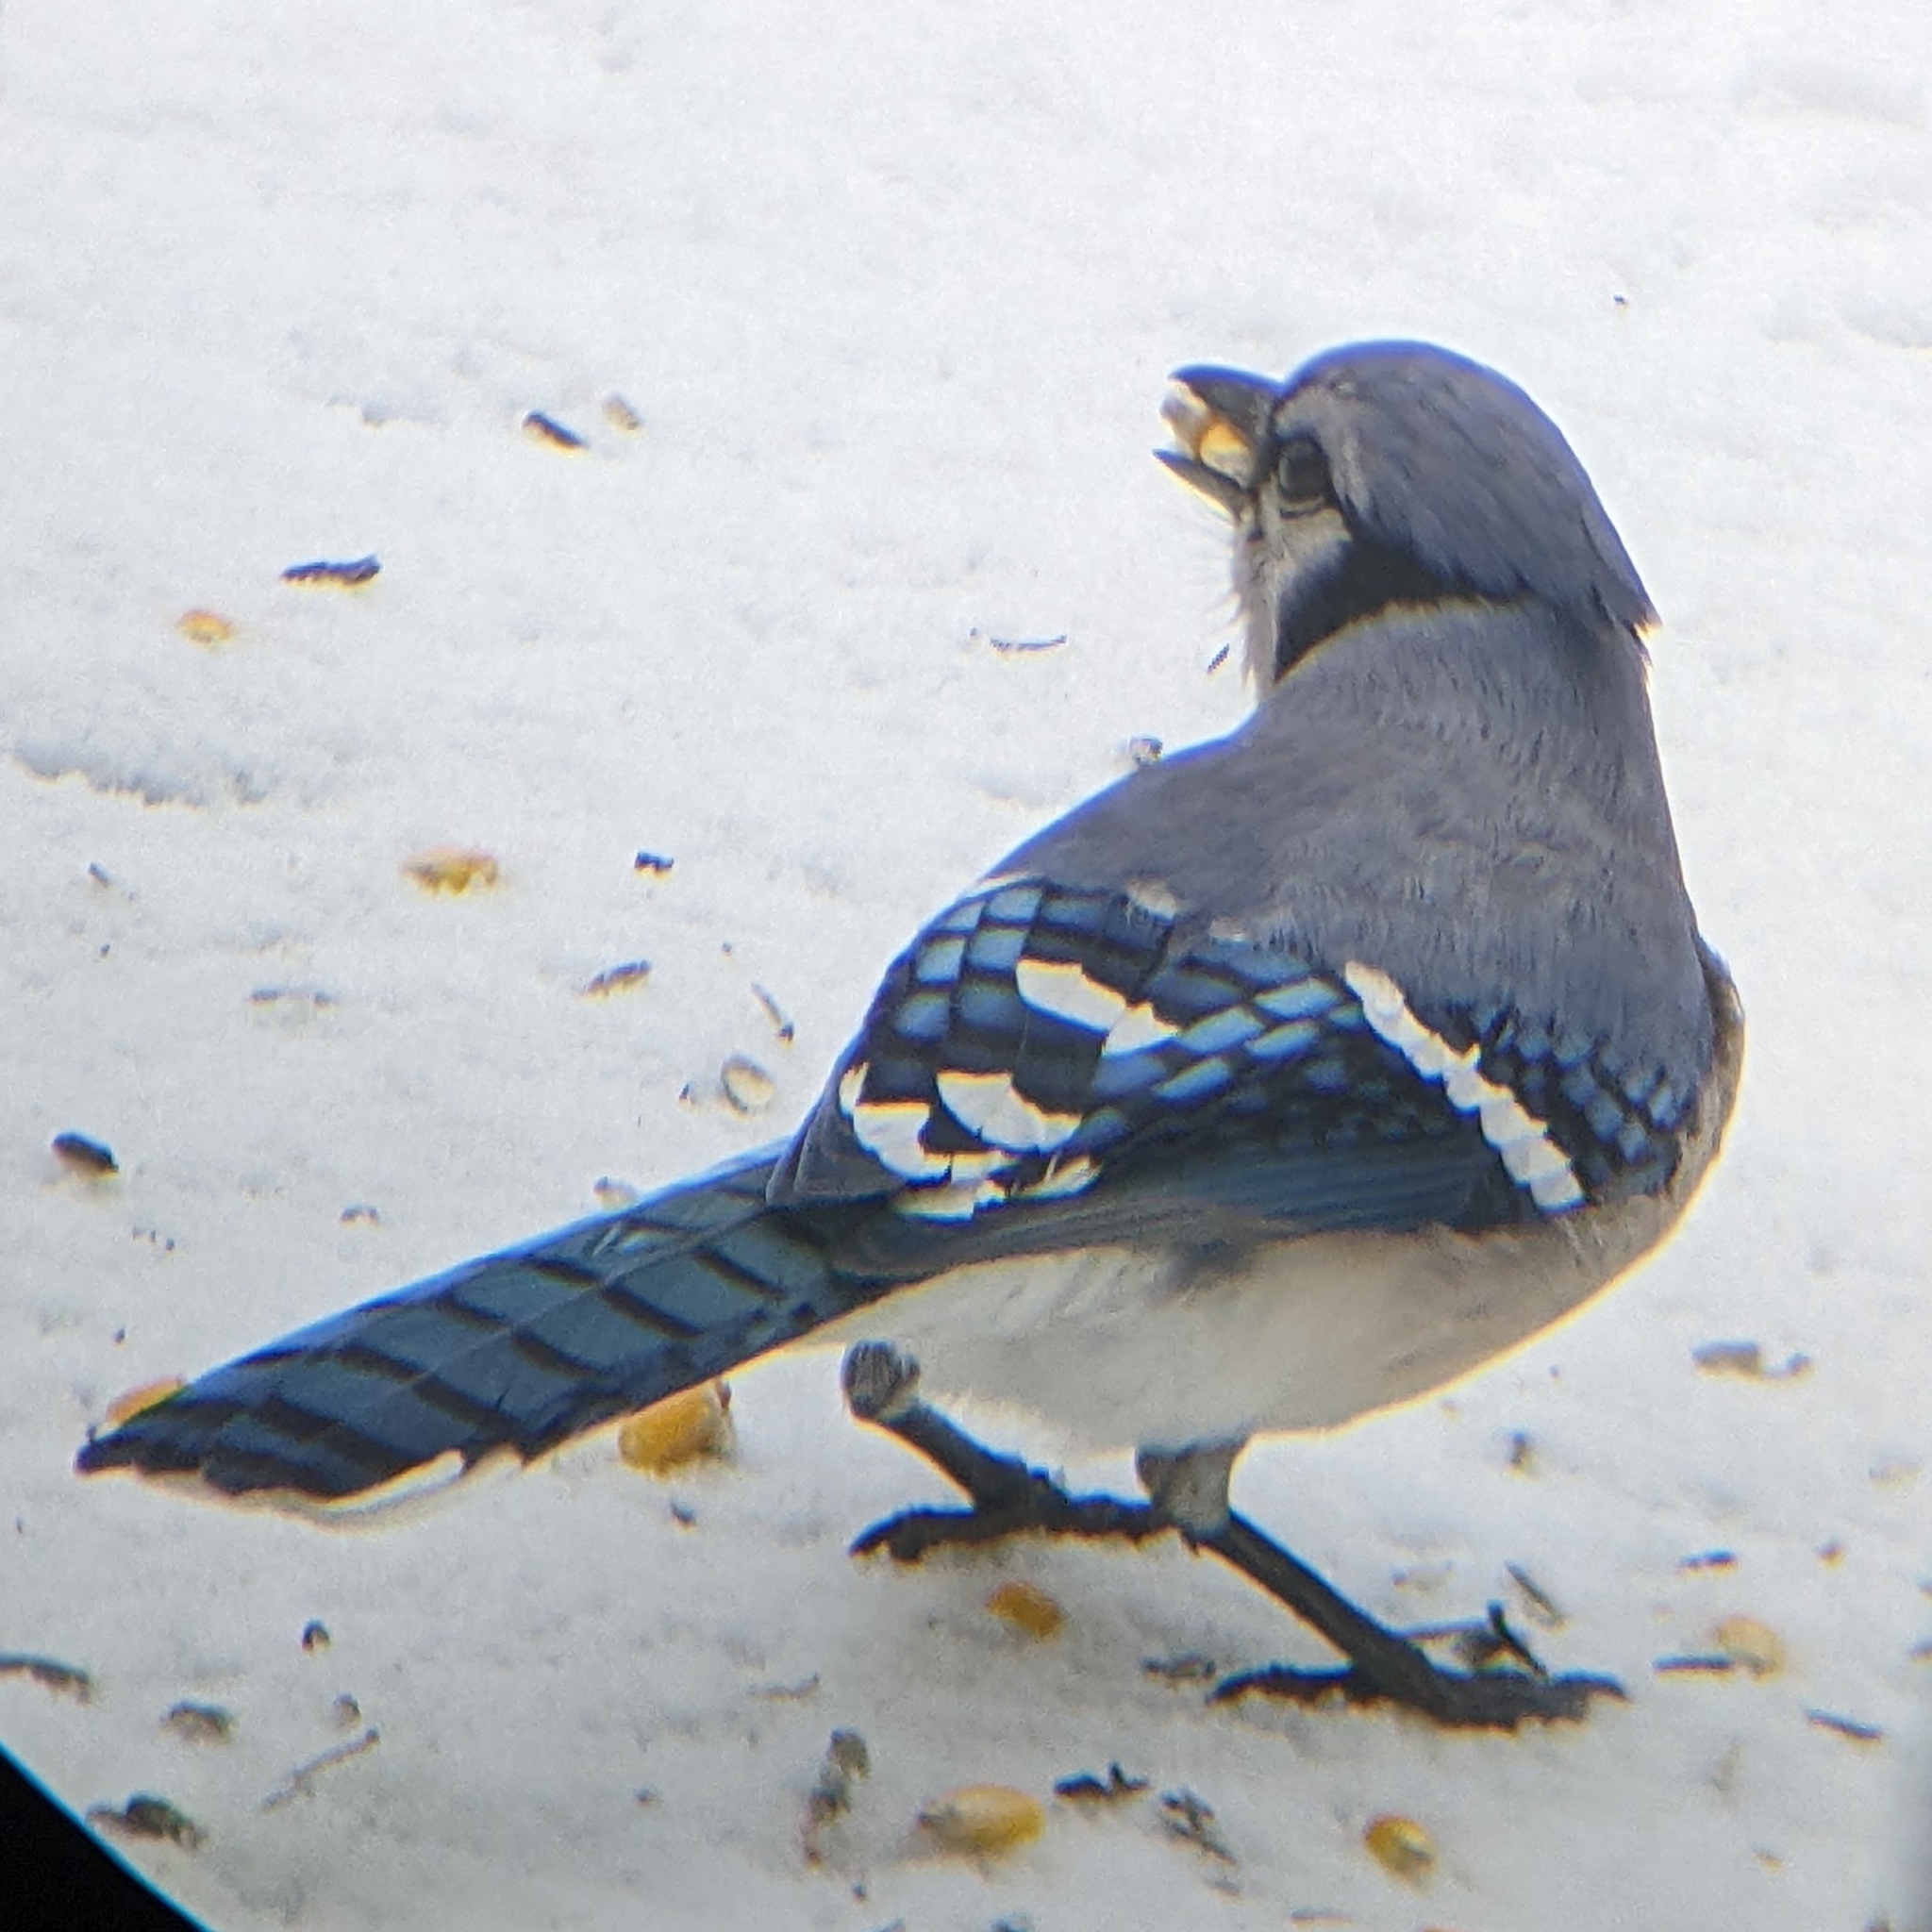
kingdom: Animalia
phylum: Chordata
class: Aves
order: Passeriformes
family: Corvidae
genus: Cyanocitta
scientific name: Cyanocitta cristata
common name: Blue jay
